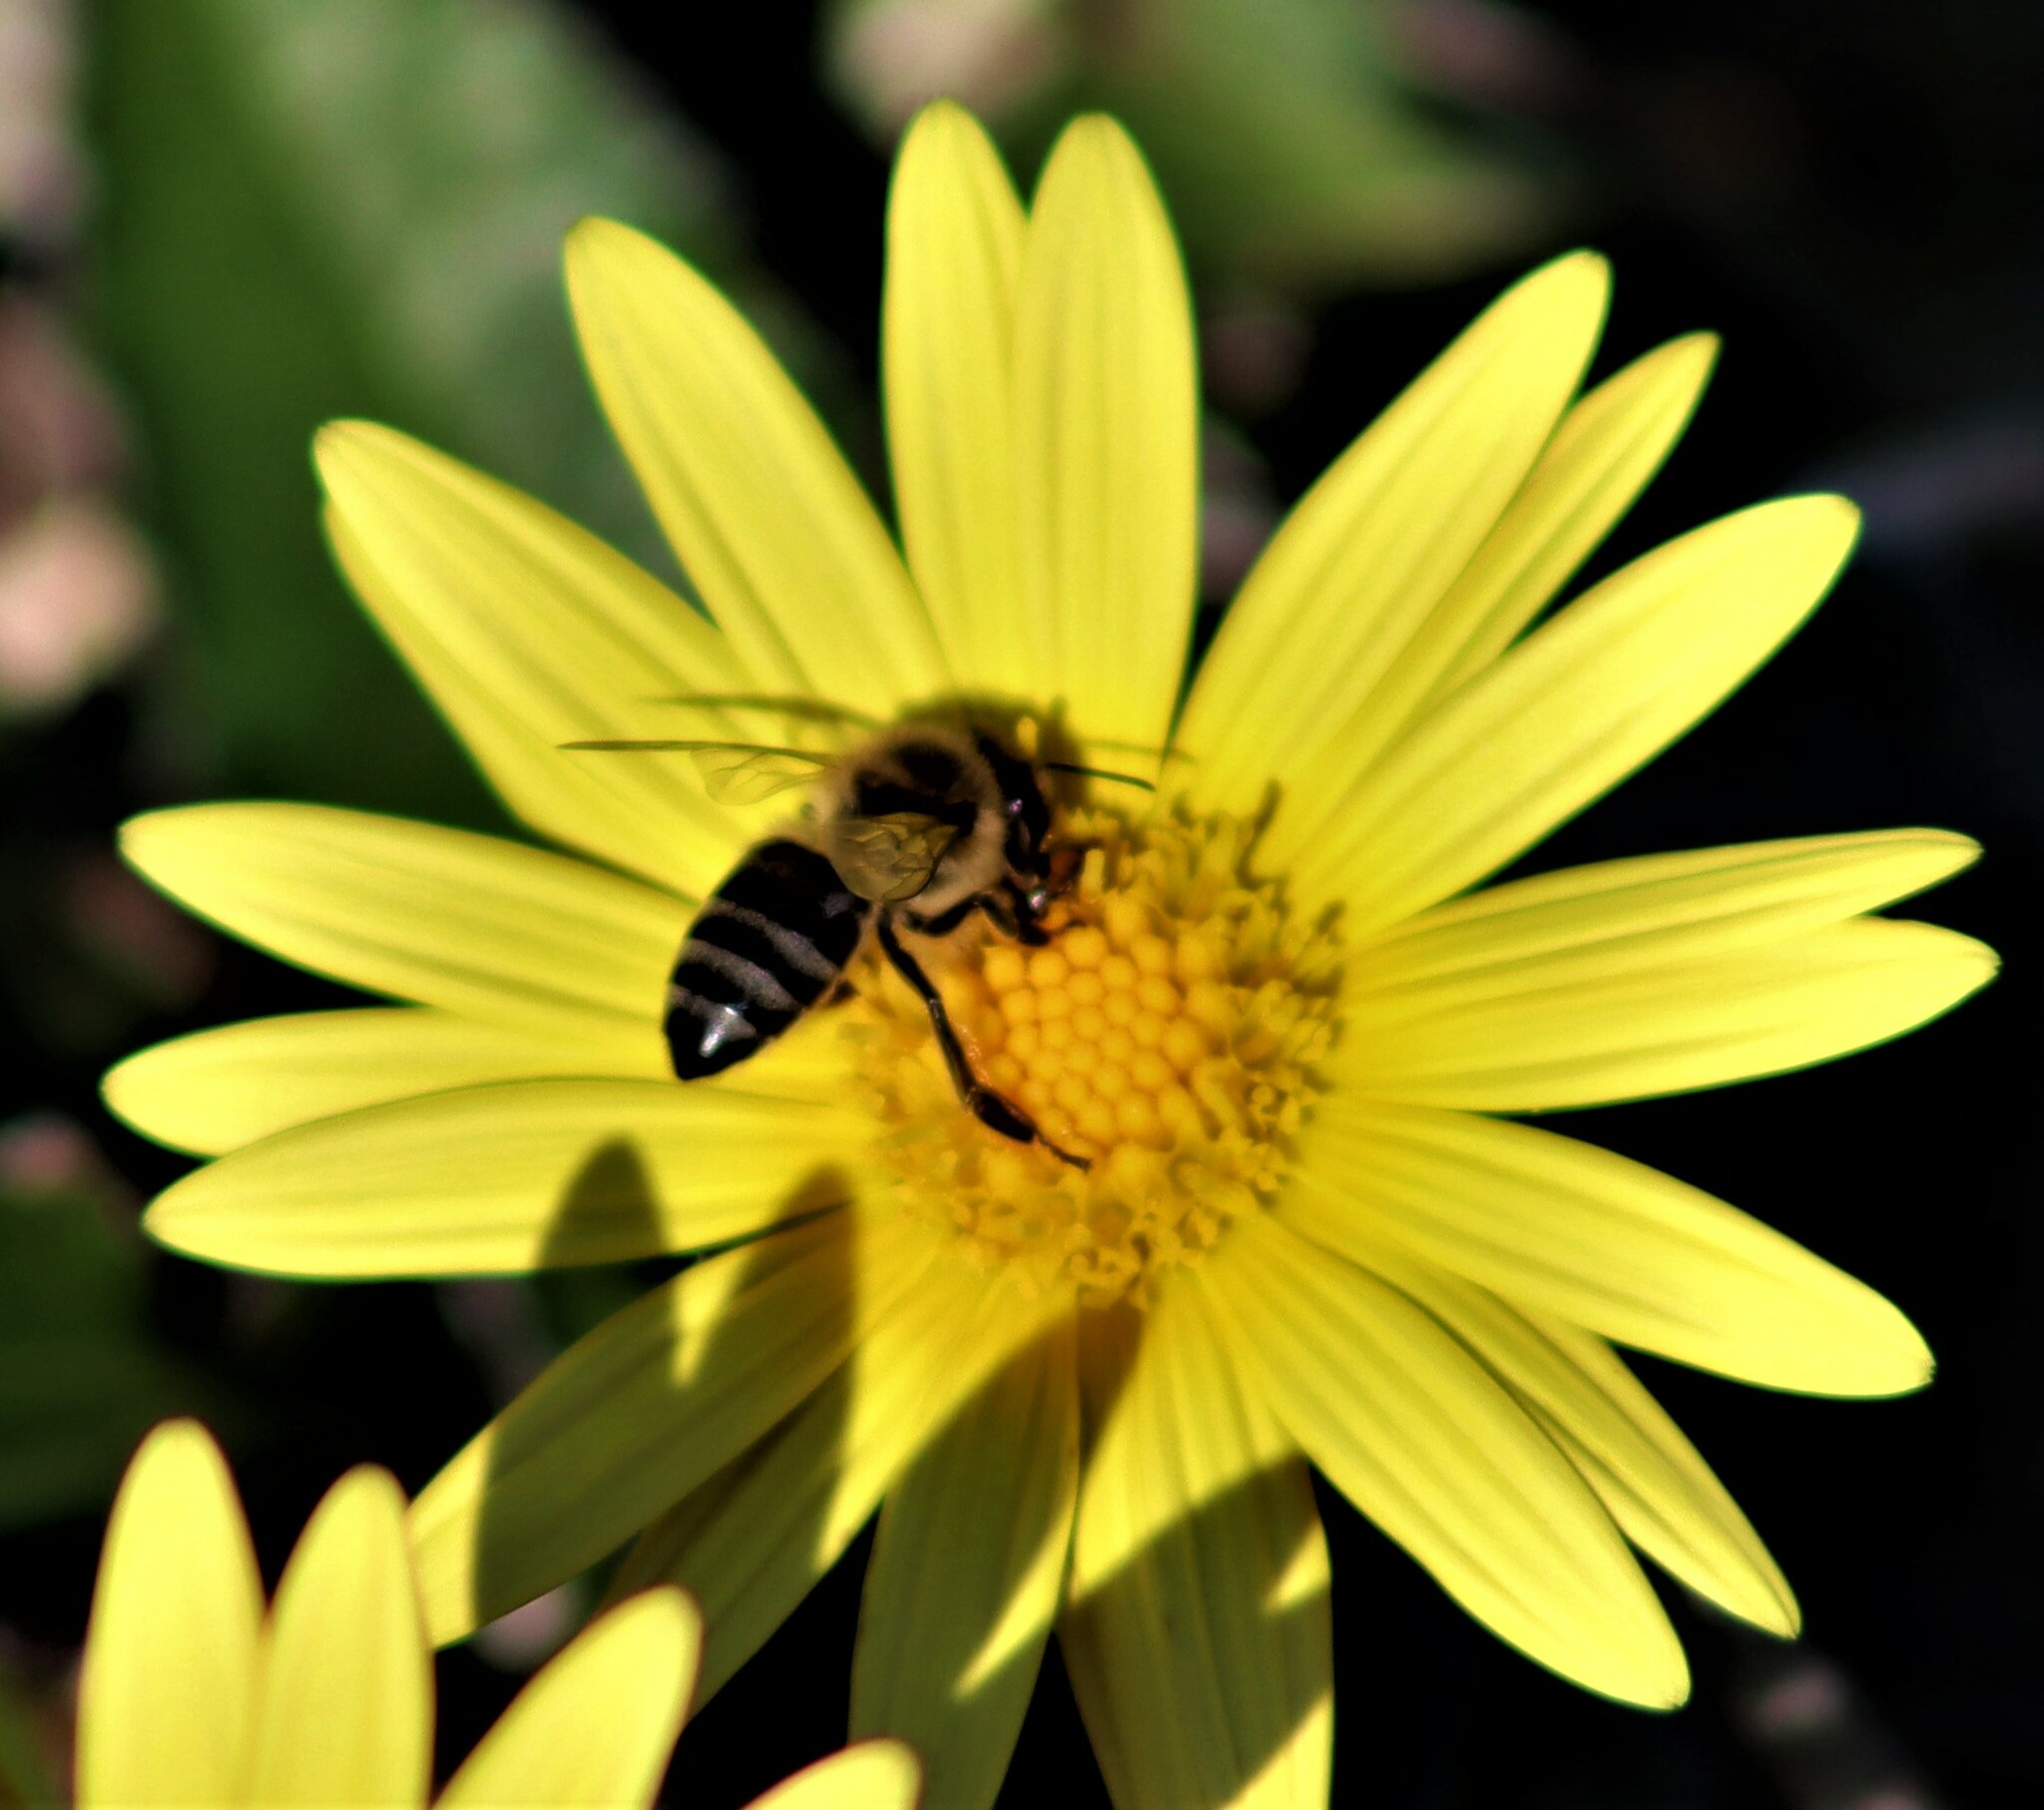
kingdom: Animalia
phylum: Arthropoda
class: Insecta
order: Hymenoptera
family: Apidae
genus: Apis
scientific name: Apis mellifera
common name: Honey bee
